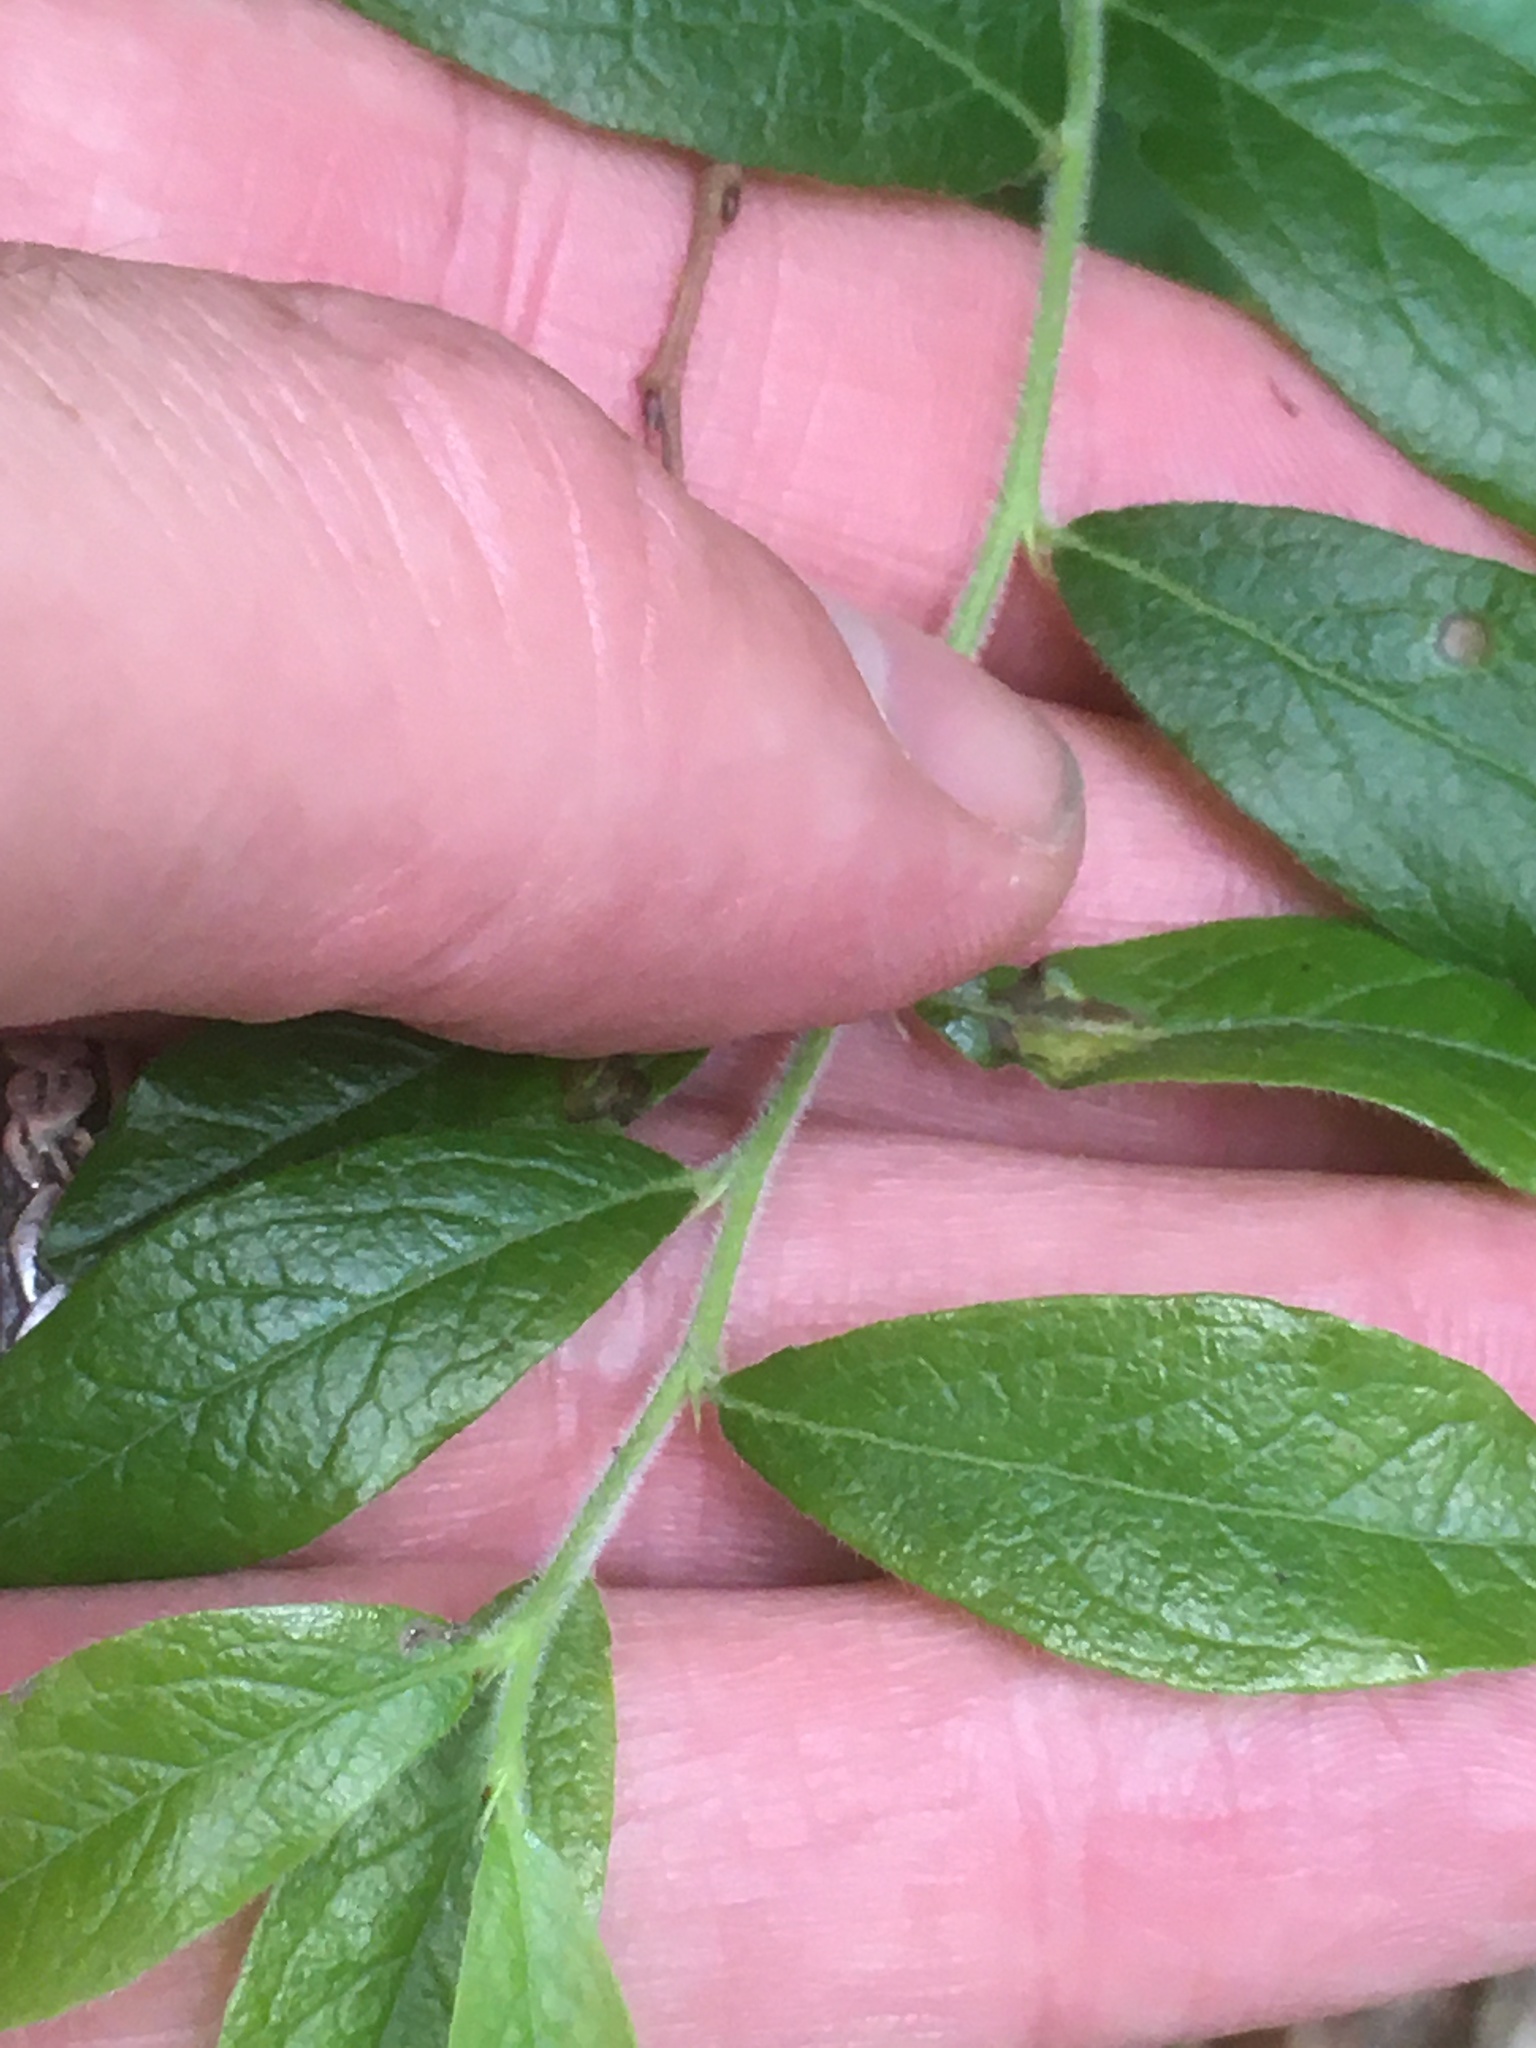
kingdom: Plantae
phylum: Tracheophyta
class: Magnoliopsida
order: Ericales
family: Ericaceae
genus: Vaccinium
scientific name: Vaccinium myrtilloides
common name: Canada blueberry
